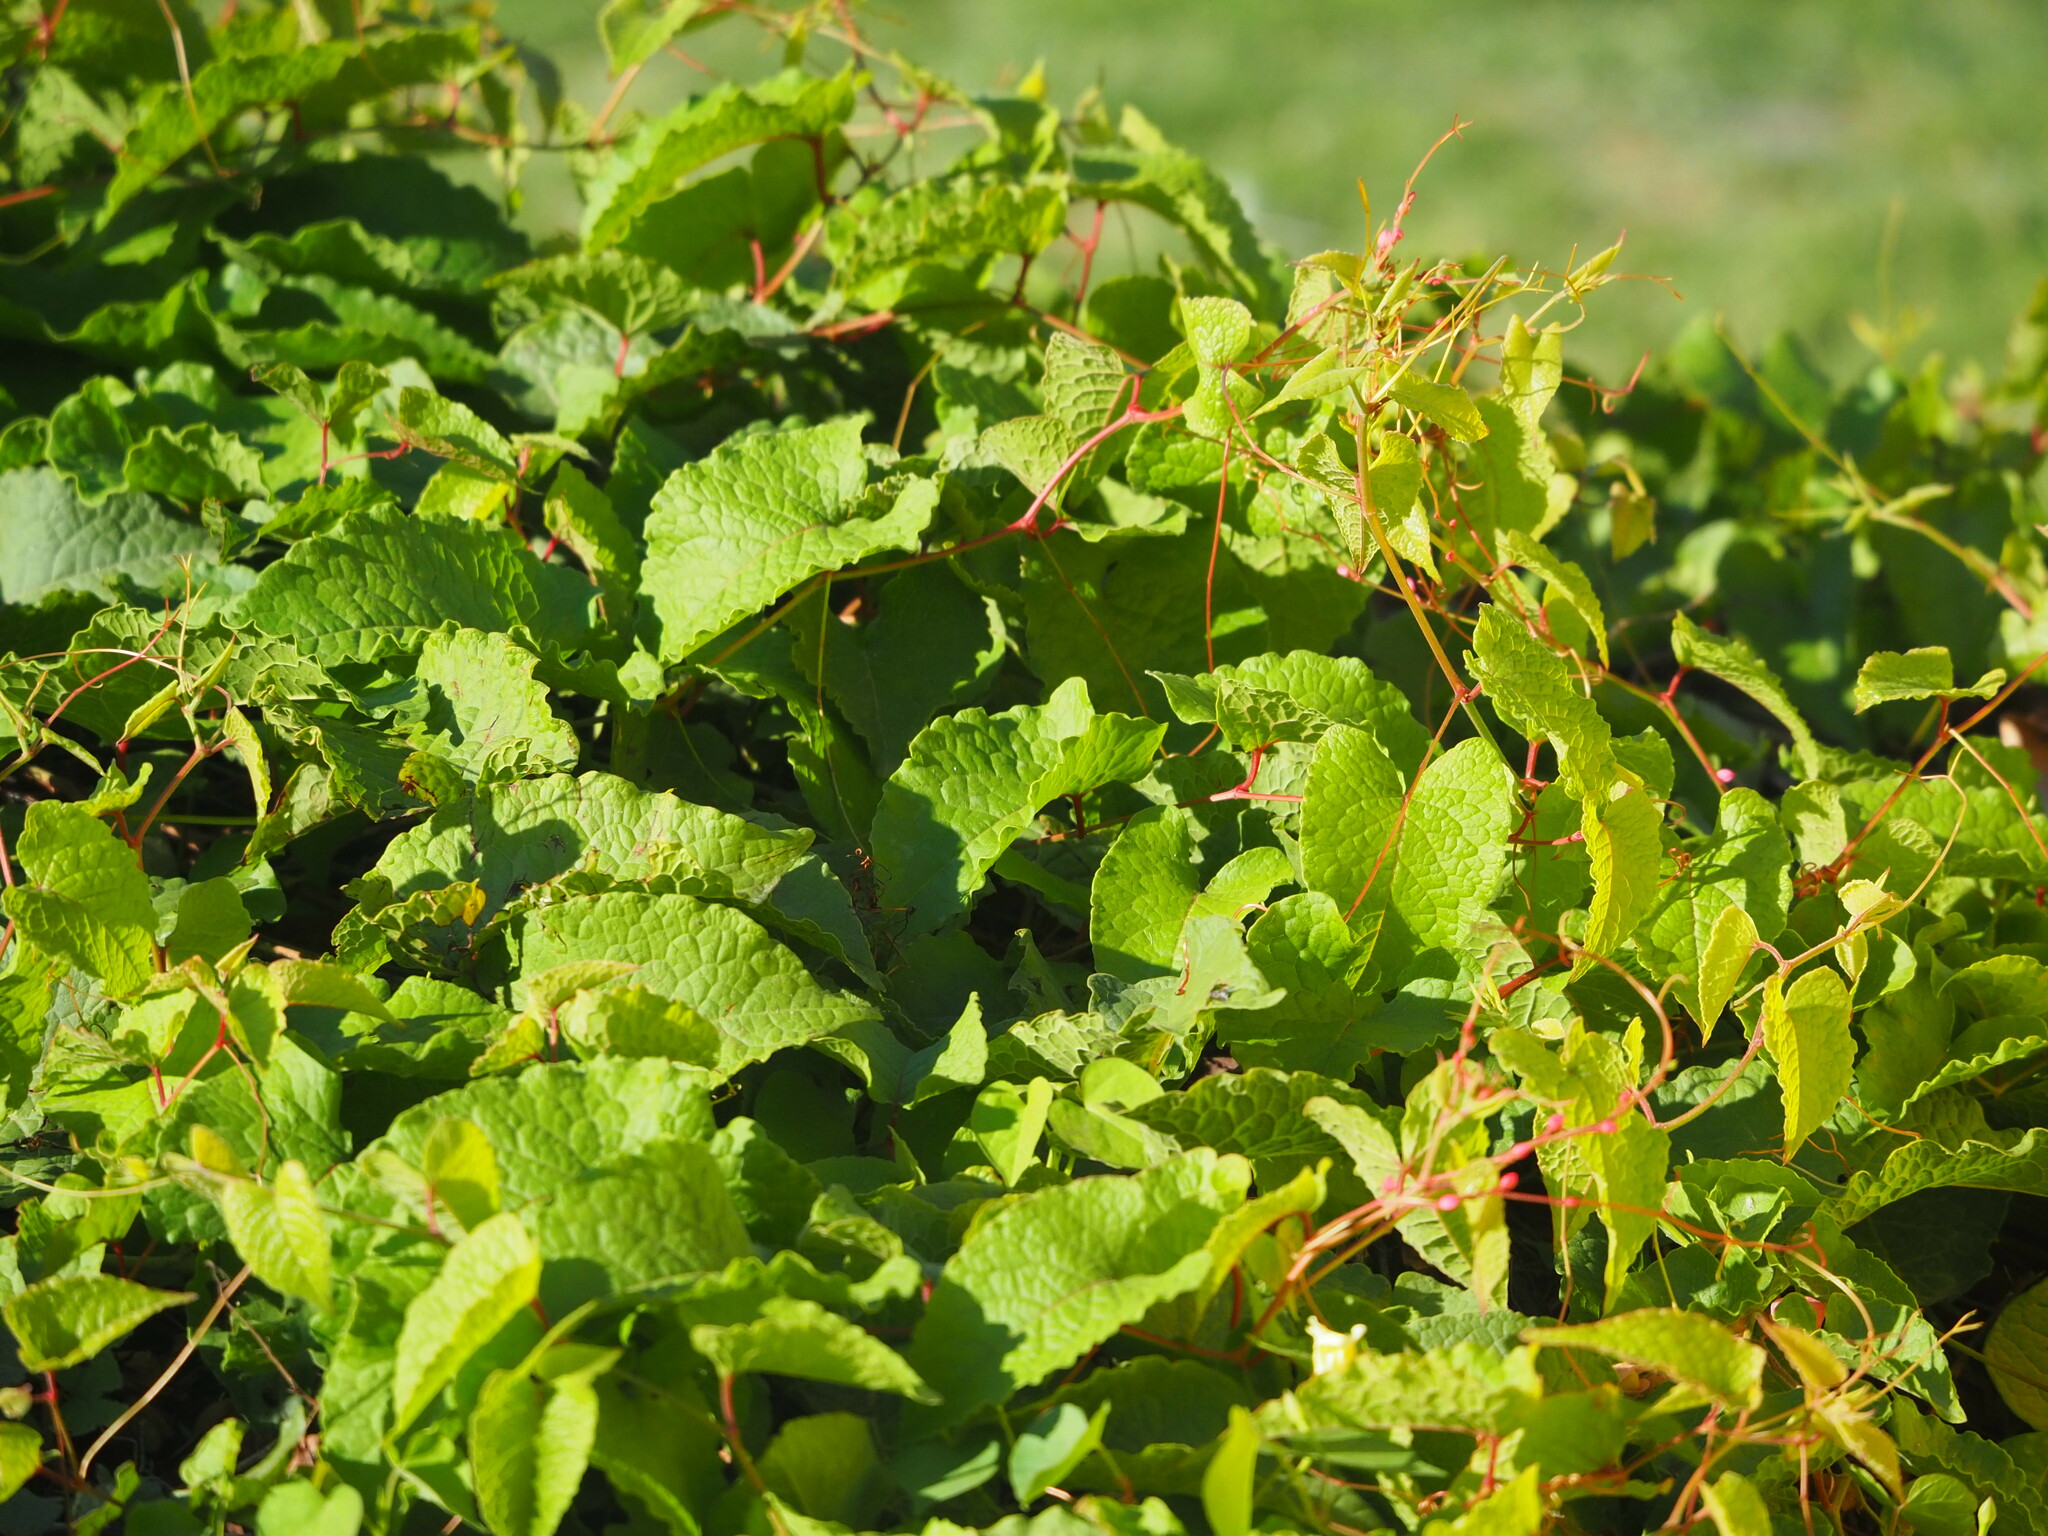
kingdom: Plantae
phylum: Tracheophyta
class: Magnoliopsida
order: Caryophyllales
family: Polygonaceae
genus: Antigonon
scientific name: Antigonon leptopus
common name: Coral vine
